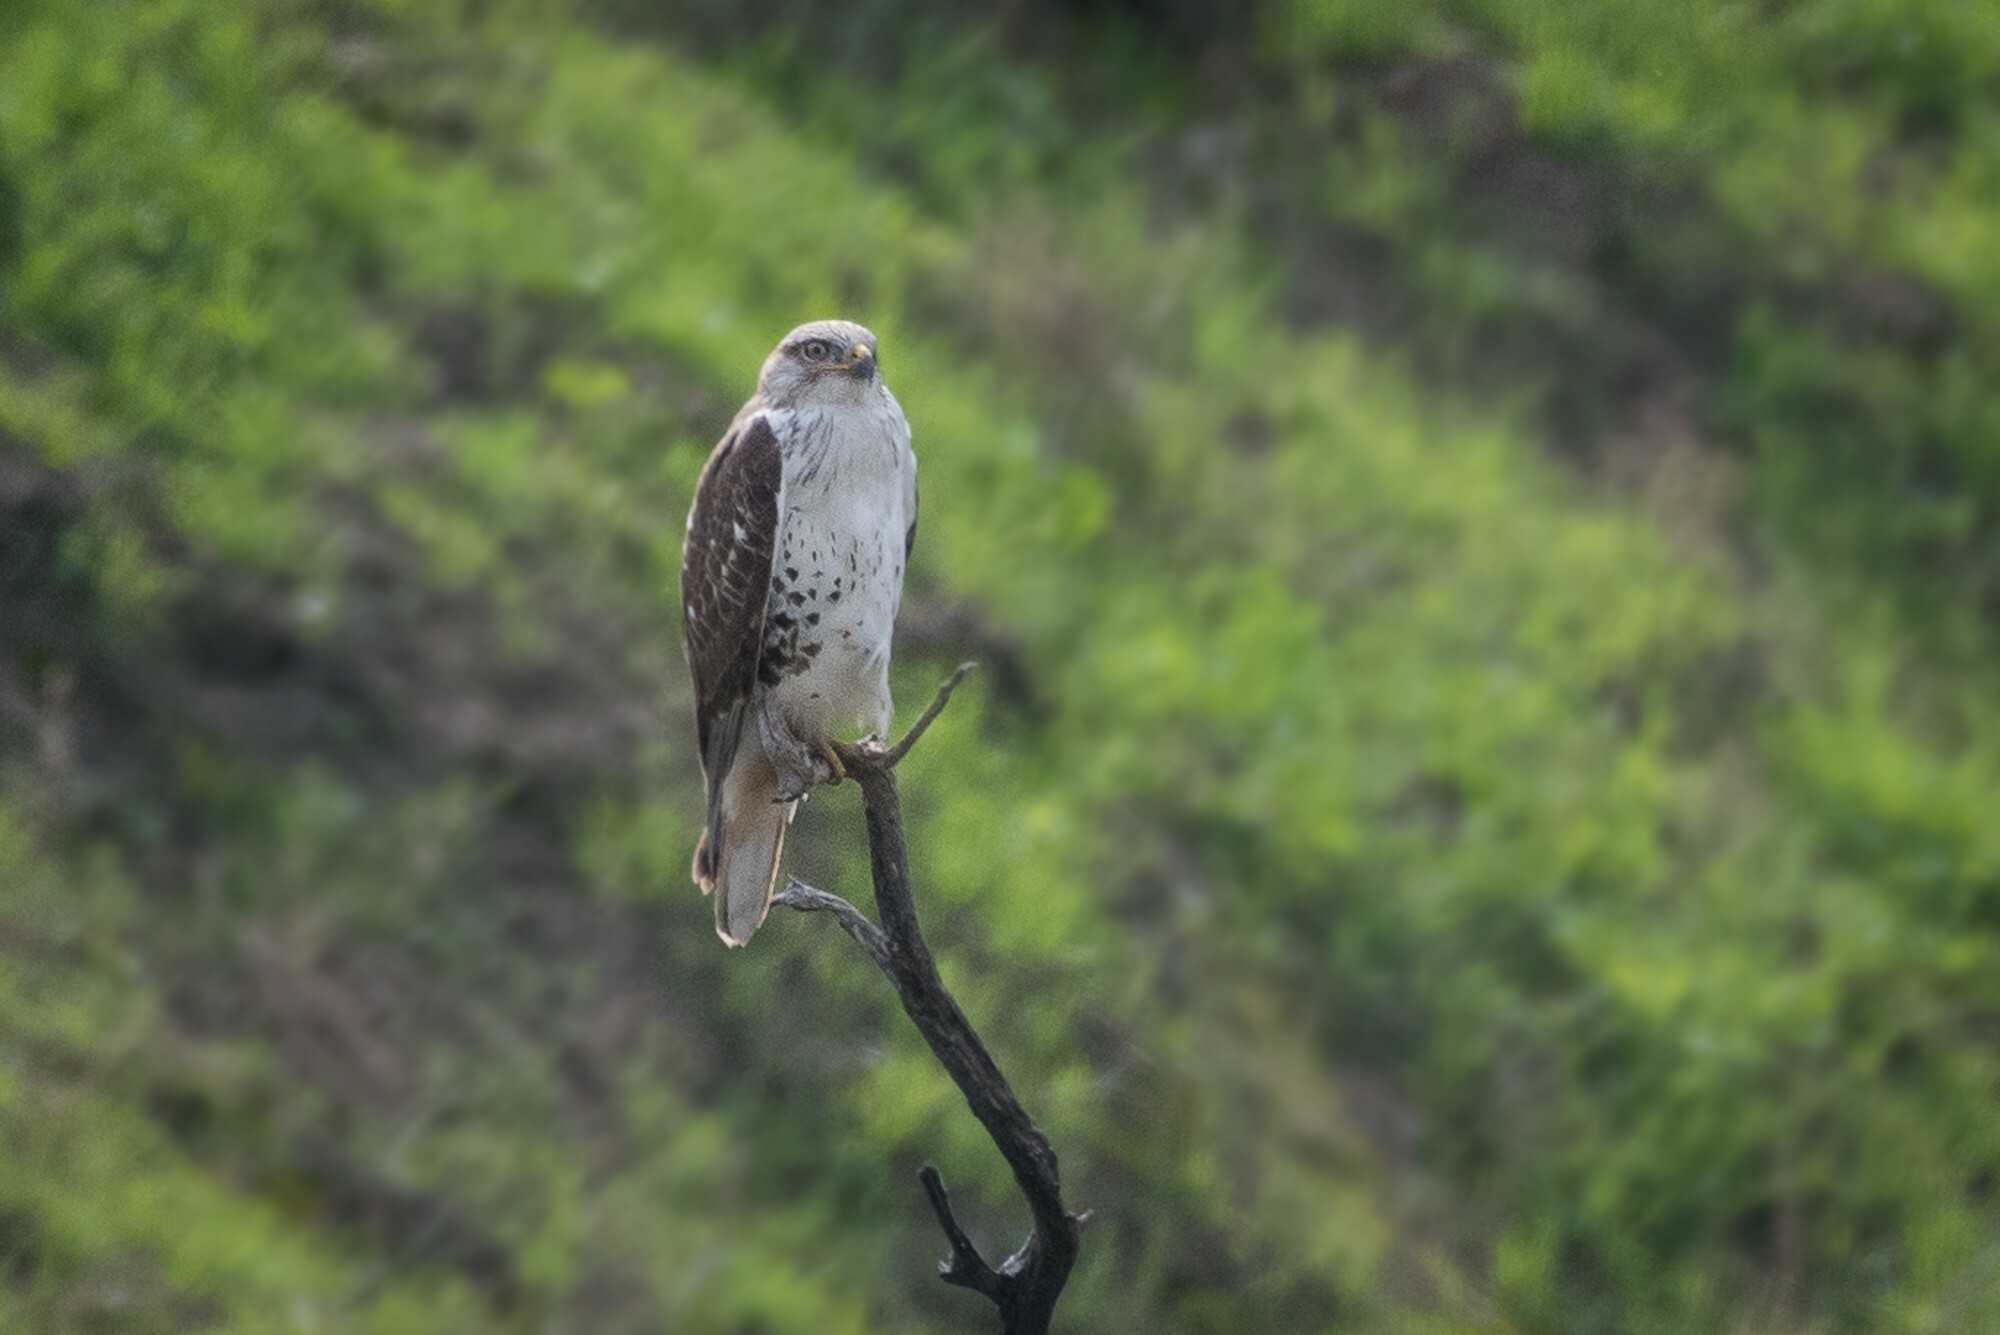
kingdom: Animalia
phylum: Chordata
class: Aves
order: Accipitriformes
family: Accipitridae
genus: Buteo
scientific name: Buteo regalis
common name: Ferruginous hawk
